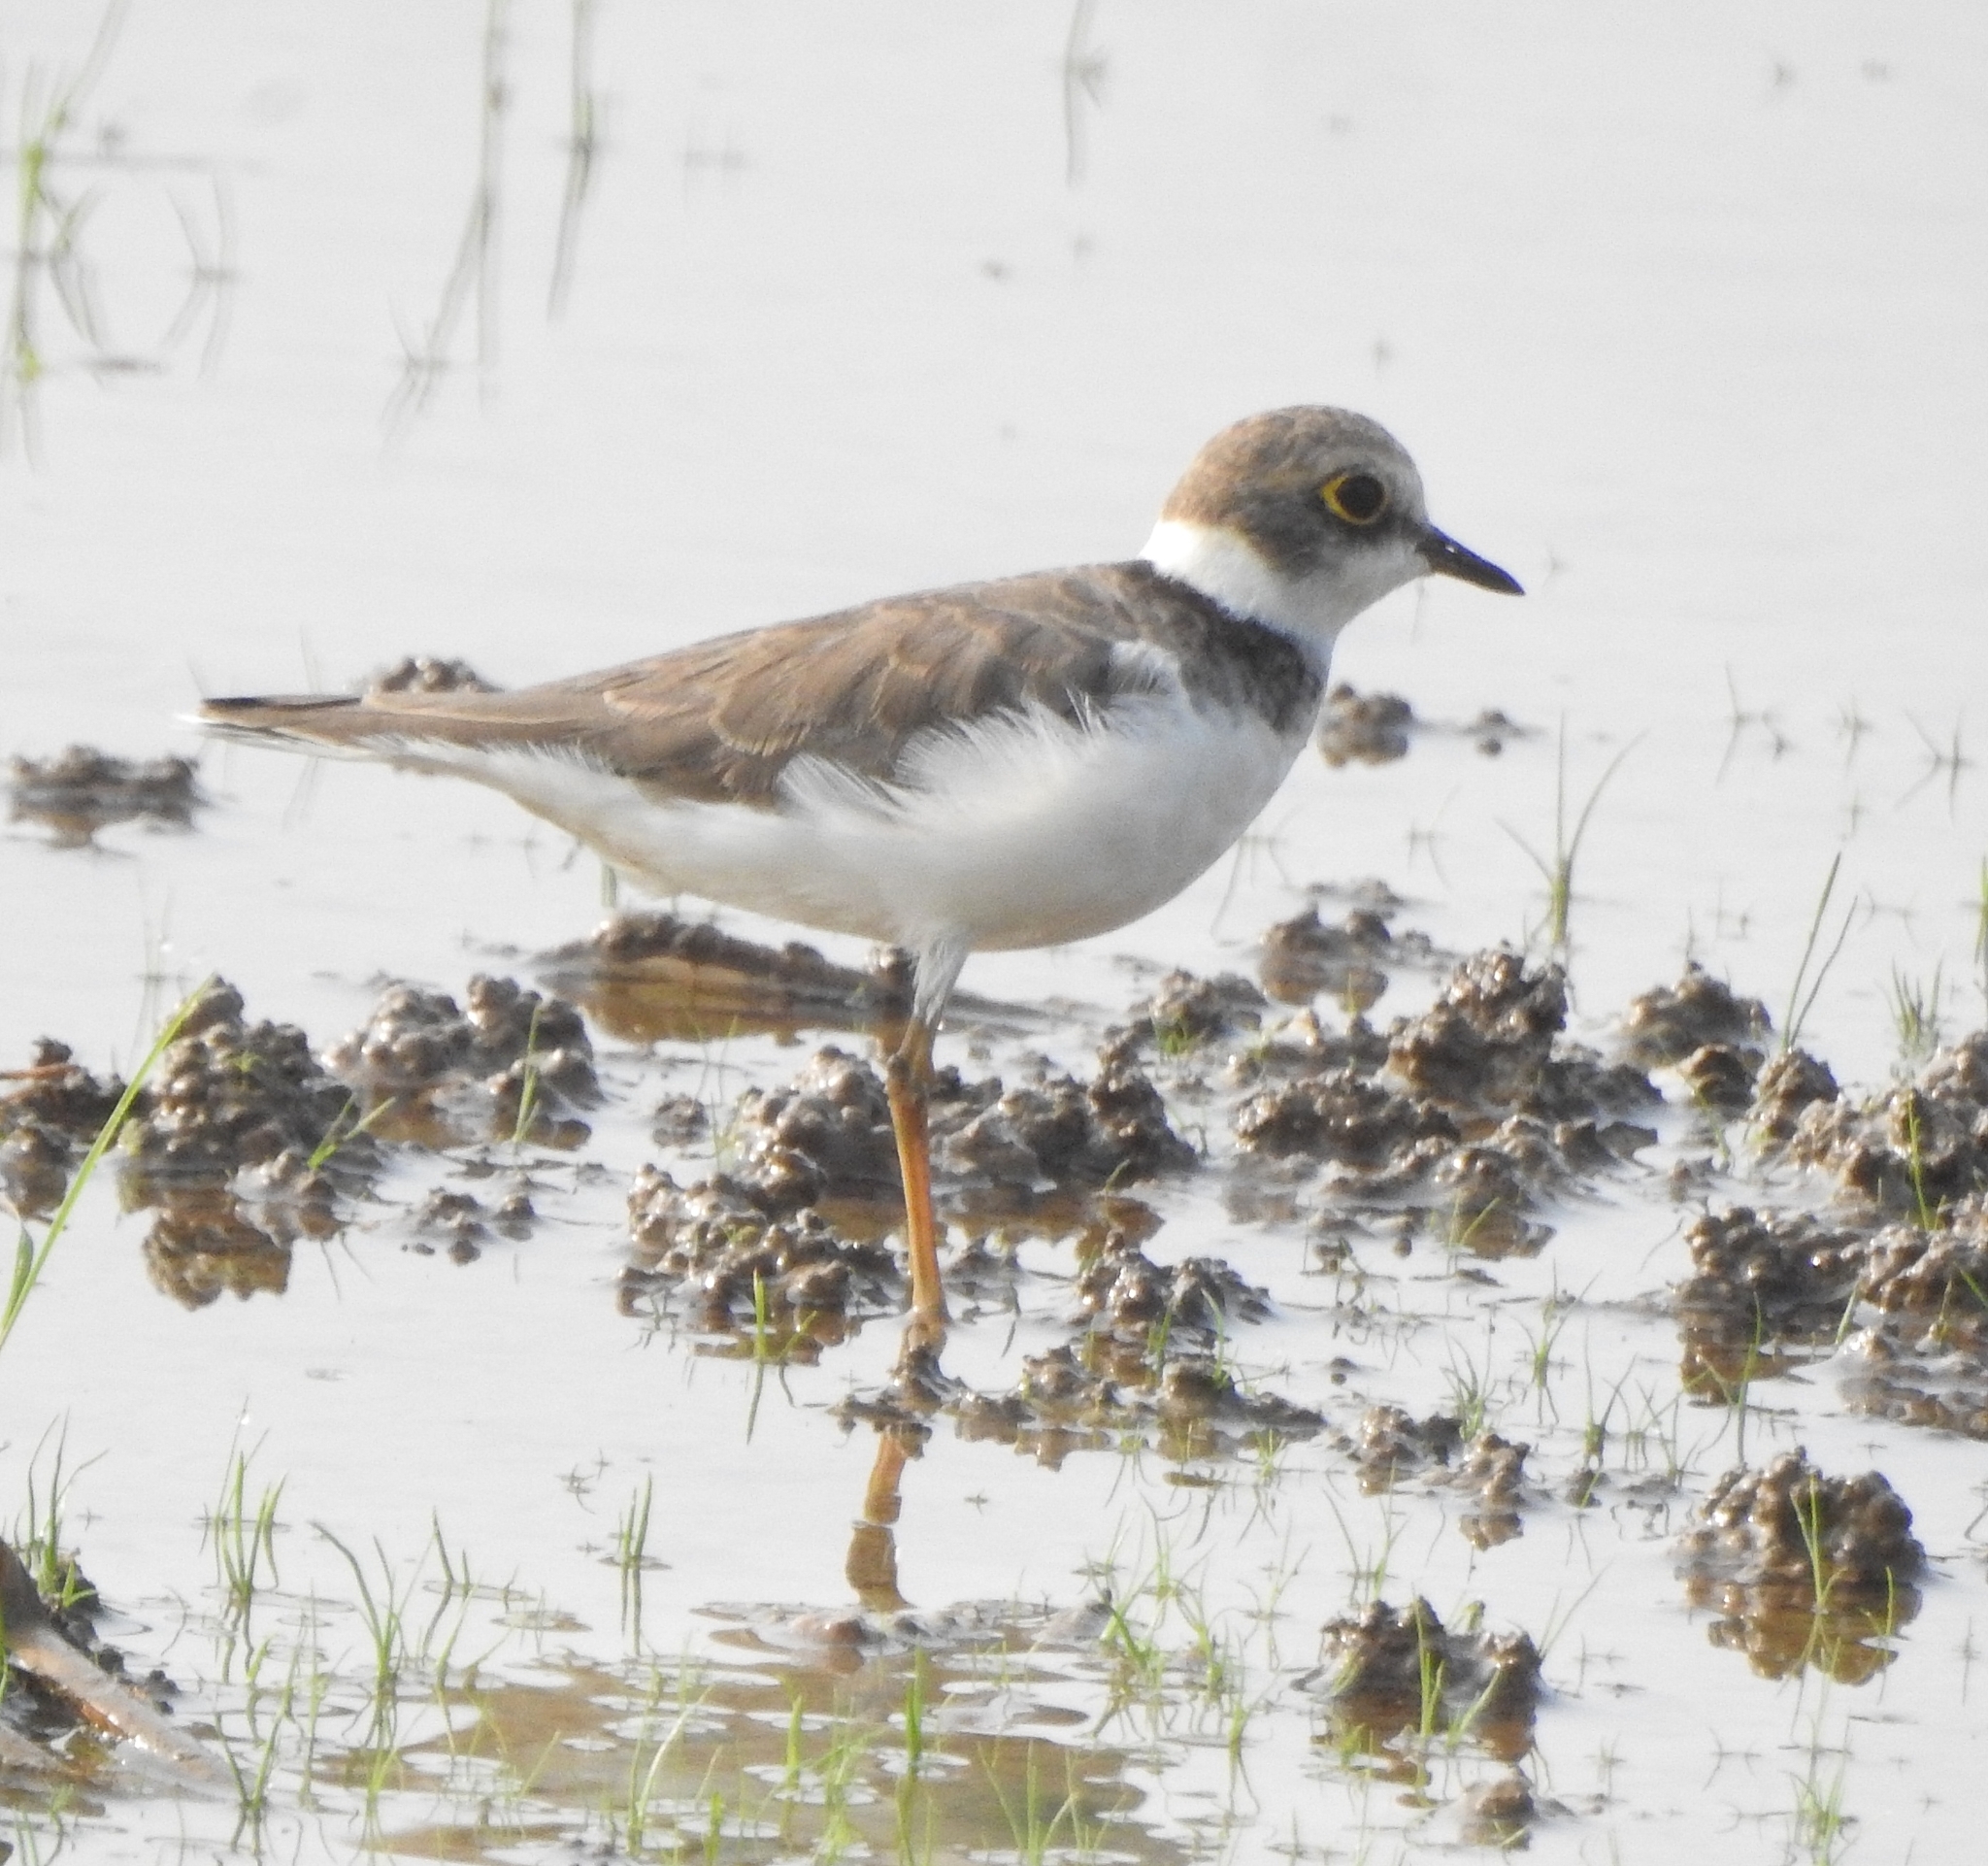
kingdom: Animalia
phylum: Chordata
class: Aves
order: Charadriiformes
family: Charadriidae
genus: Charadrius
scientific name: Charadrius dubius
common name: Little ringed plover
